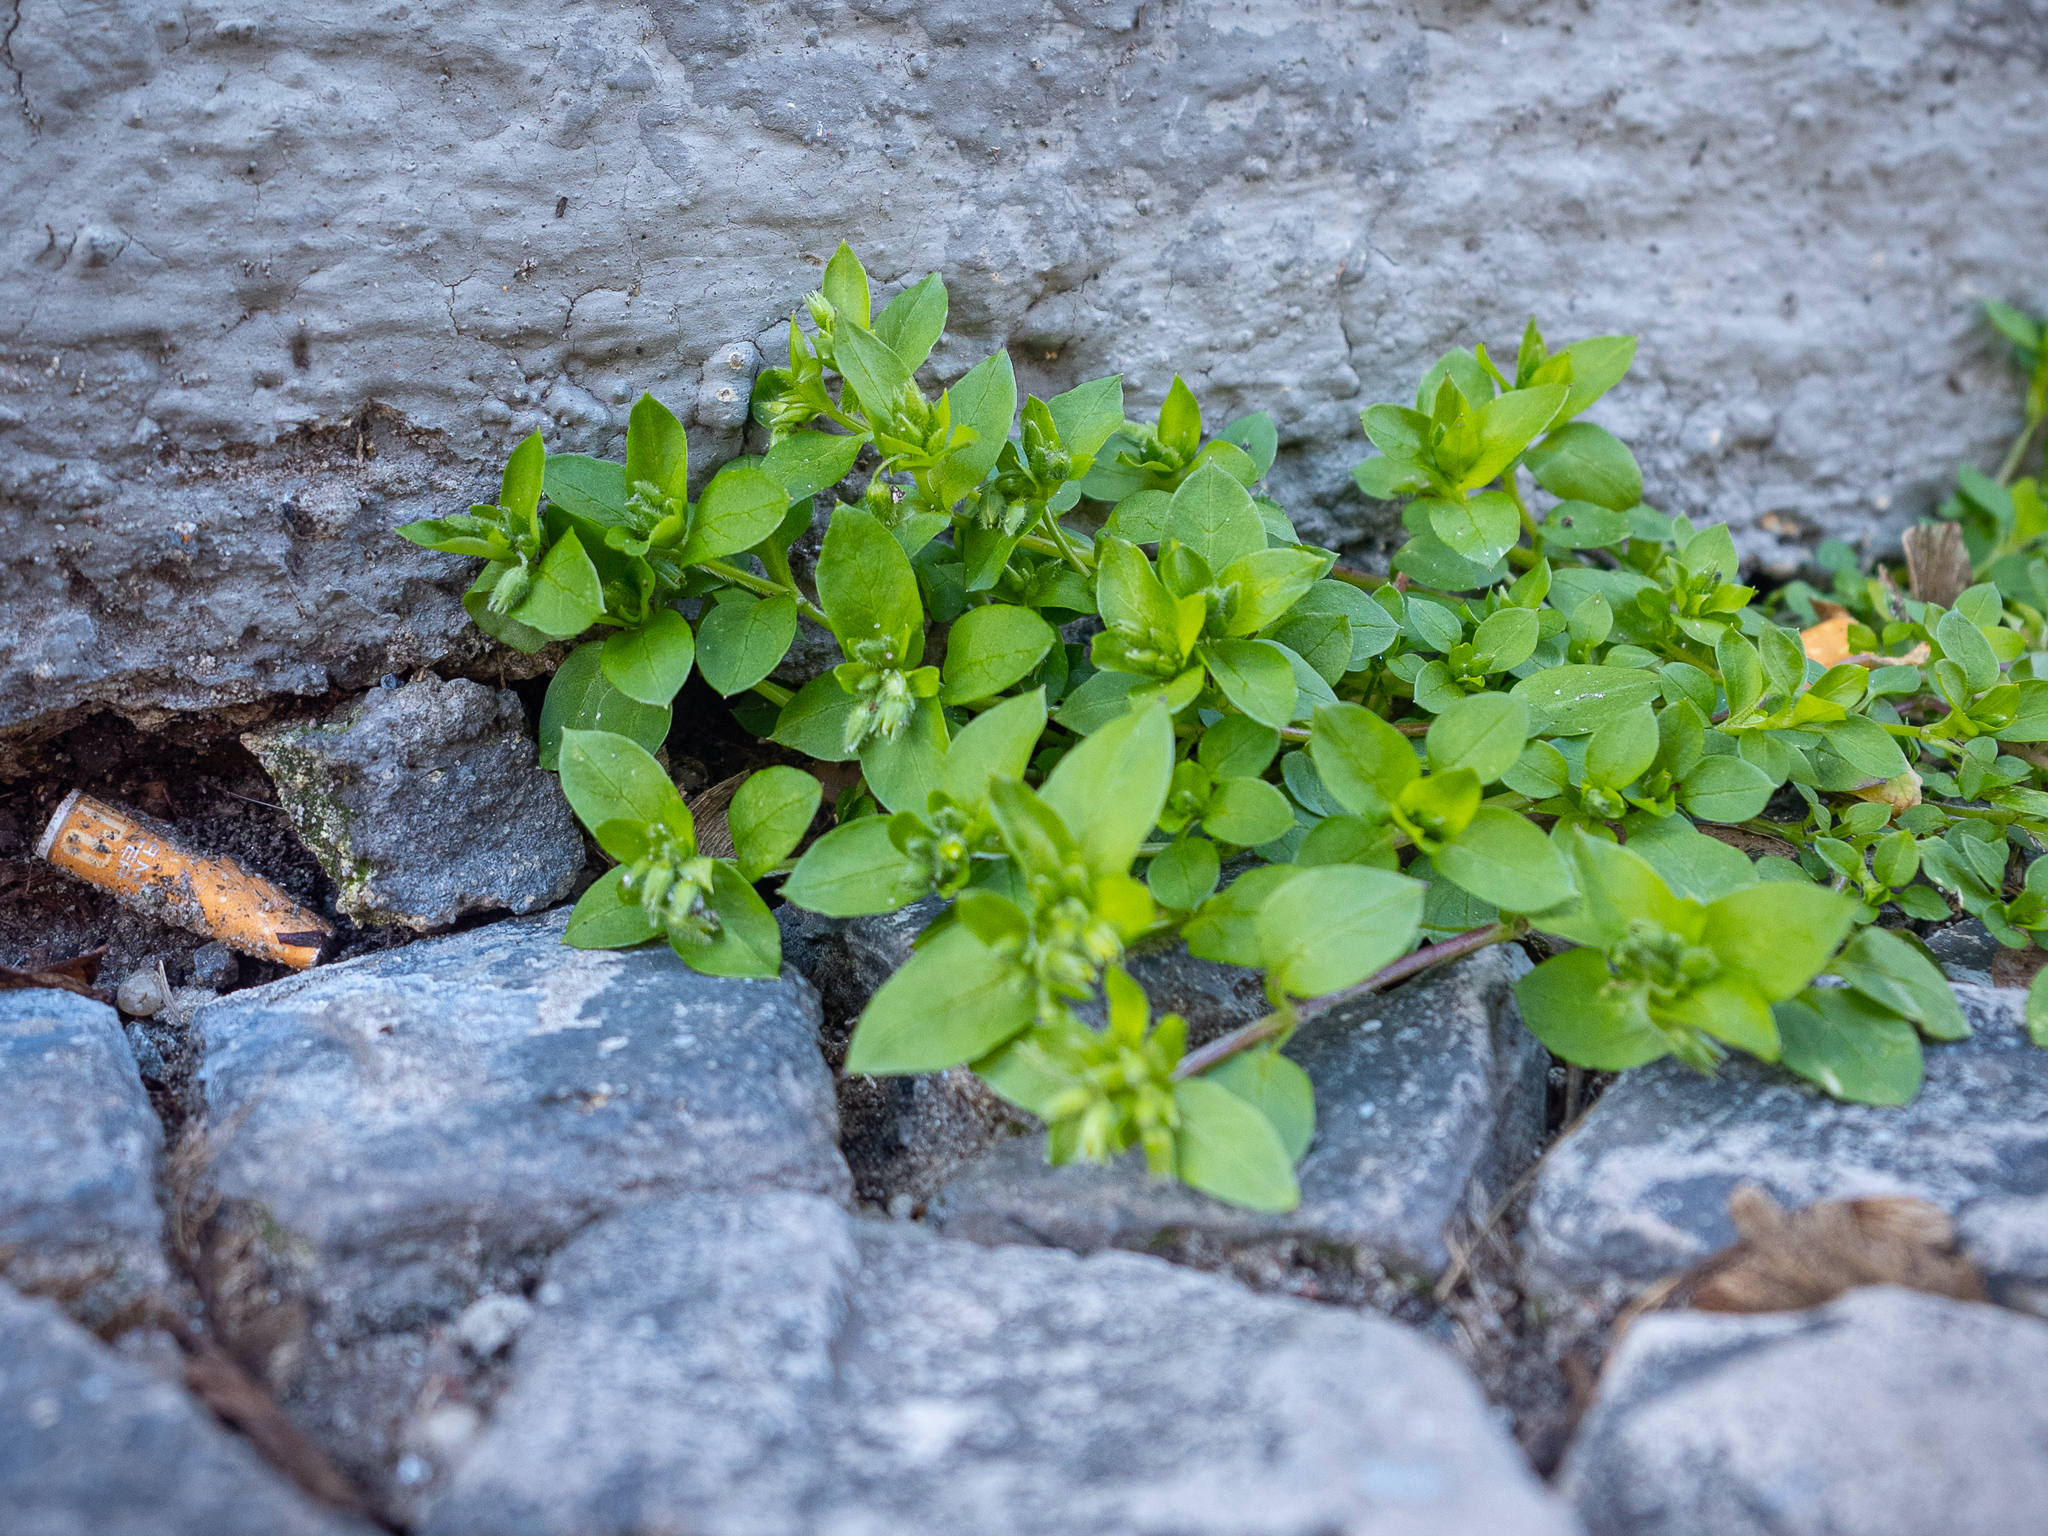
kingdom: Plantae
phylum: Tracheophyta
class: Magnoliopsida
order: Caryophyllales
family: Caryophyllaceae
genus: Stellaria
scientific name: Stellaria media
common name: Common chickweed
